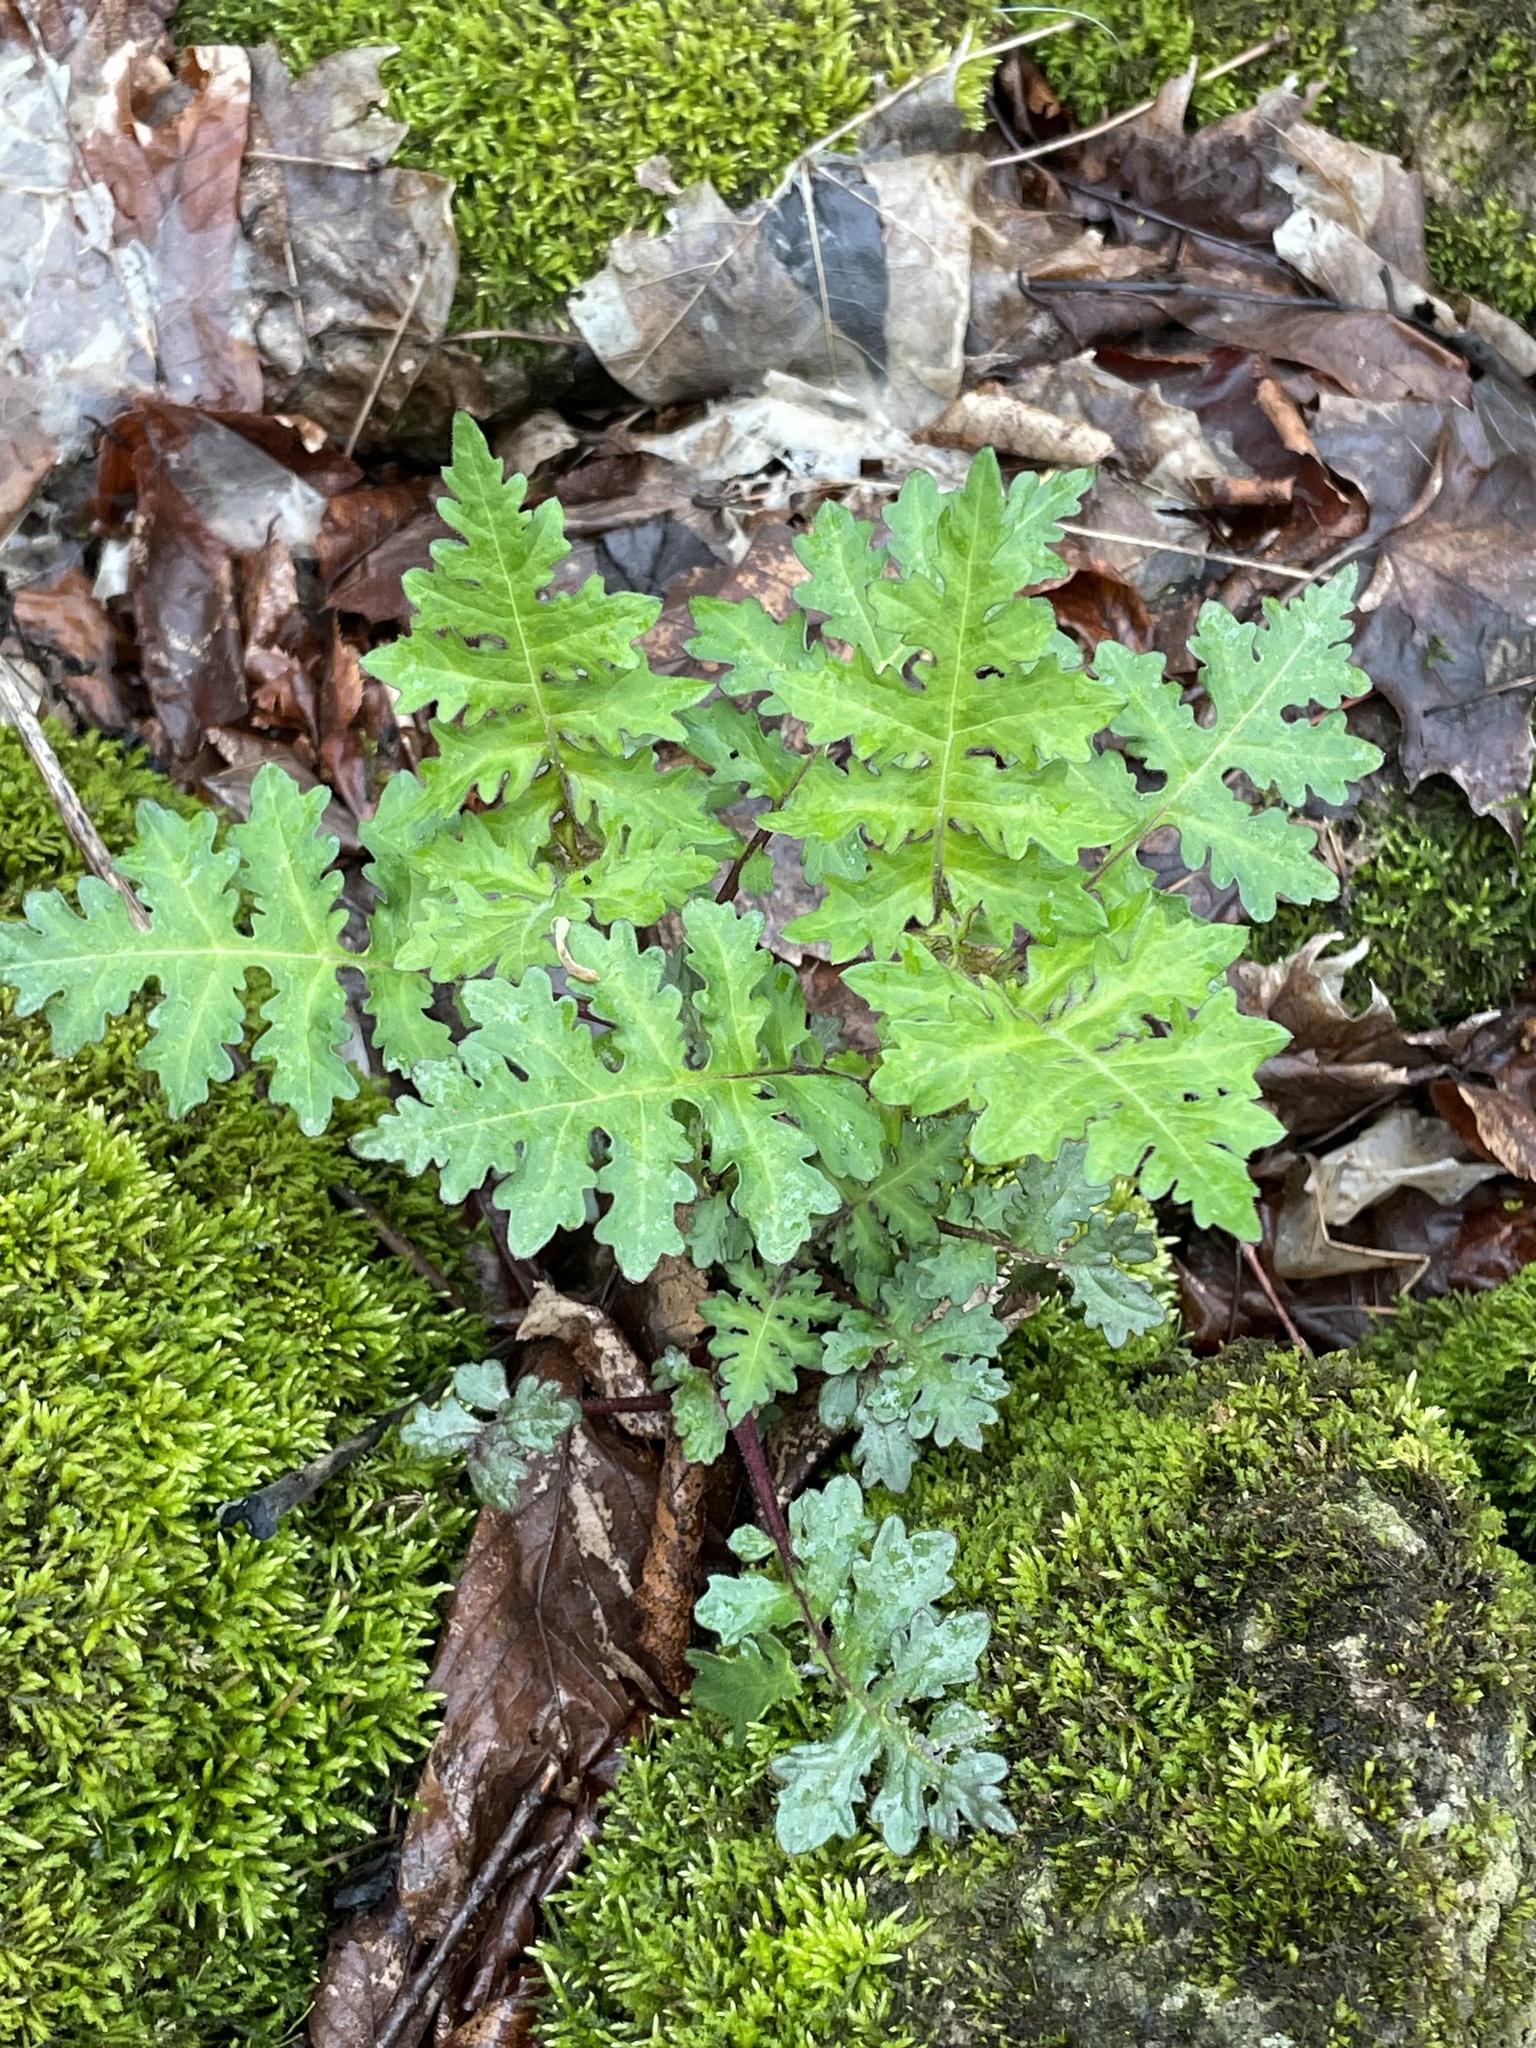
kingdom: Plantae
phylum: Tracheophyta
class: Magnoliopsida
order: Asterales
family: Asteraceae
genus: Polymnia
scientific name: Polymnia canadensis
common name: Pale-flowered leafcup
